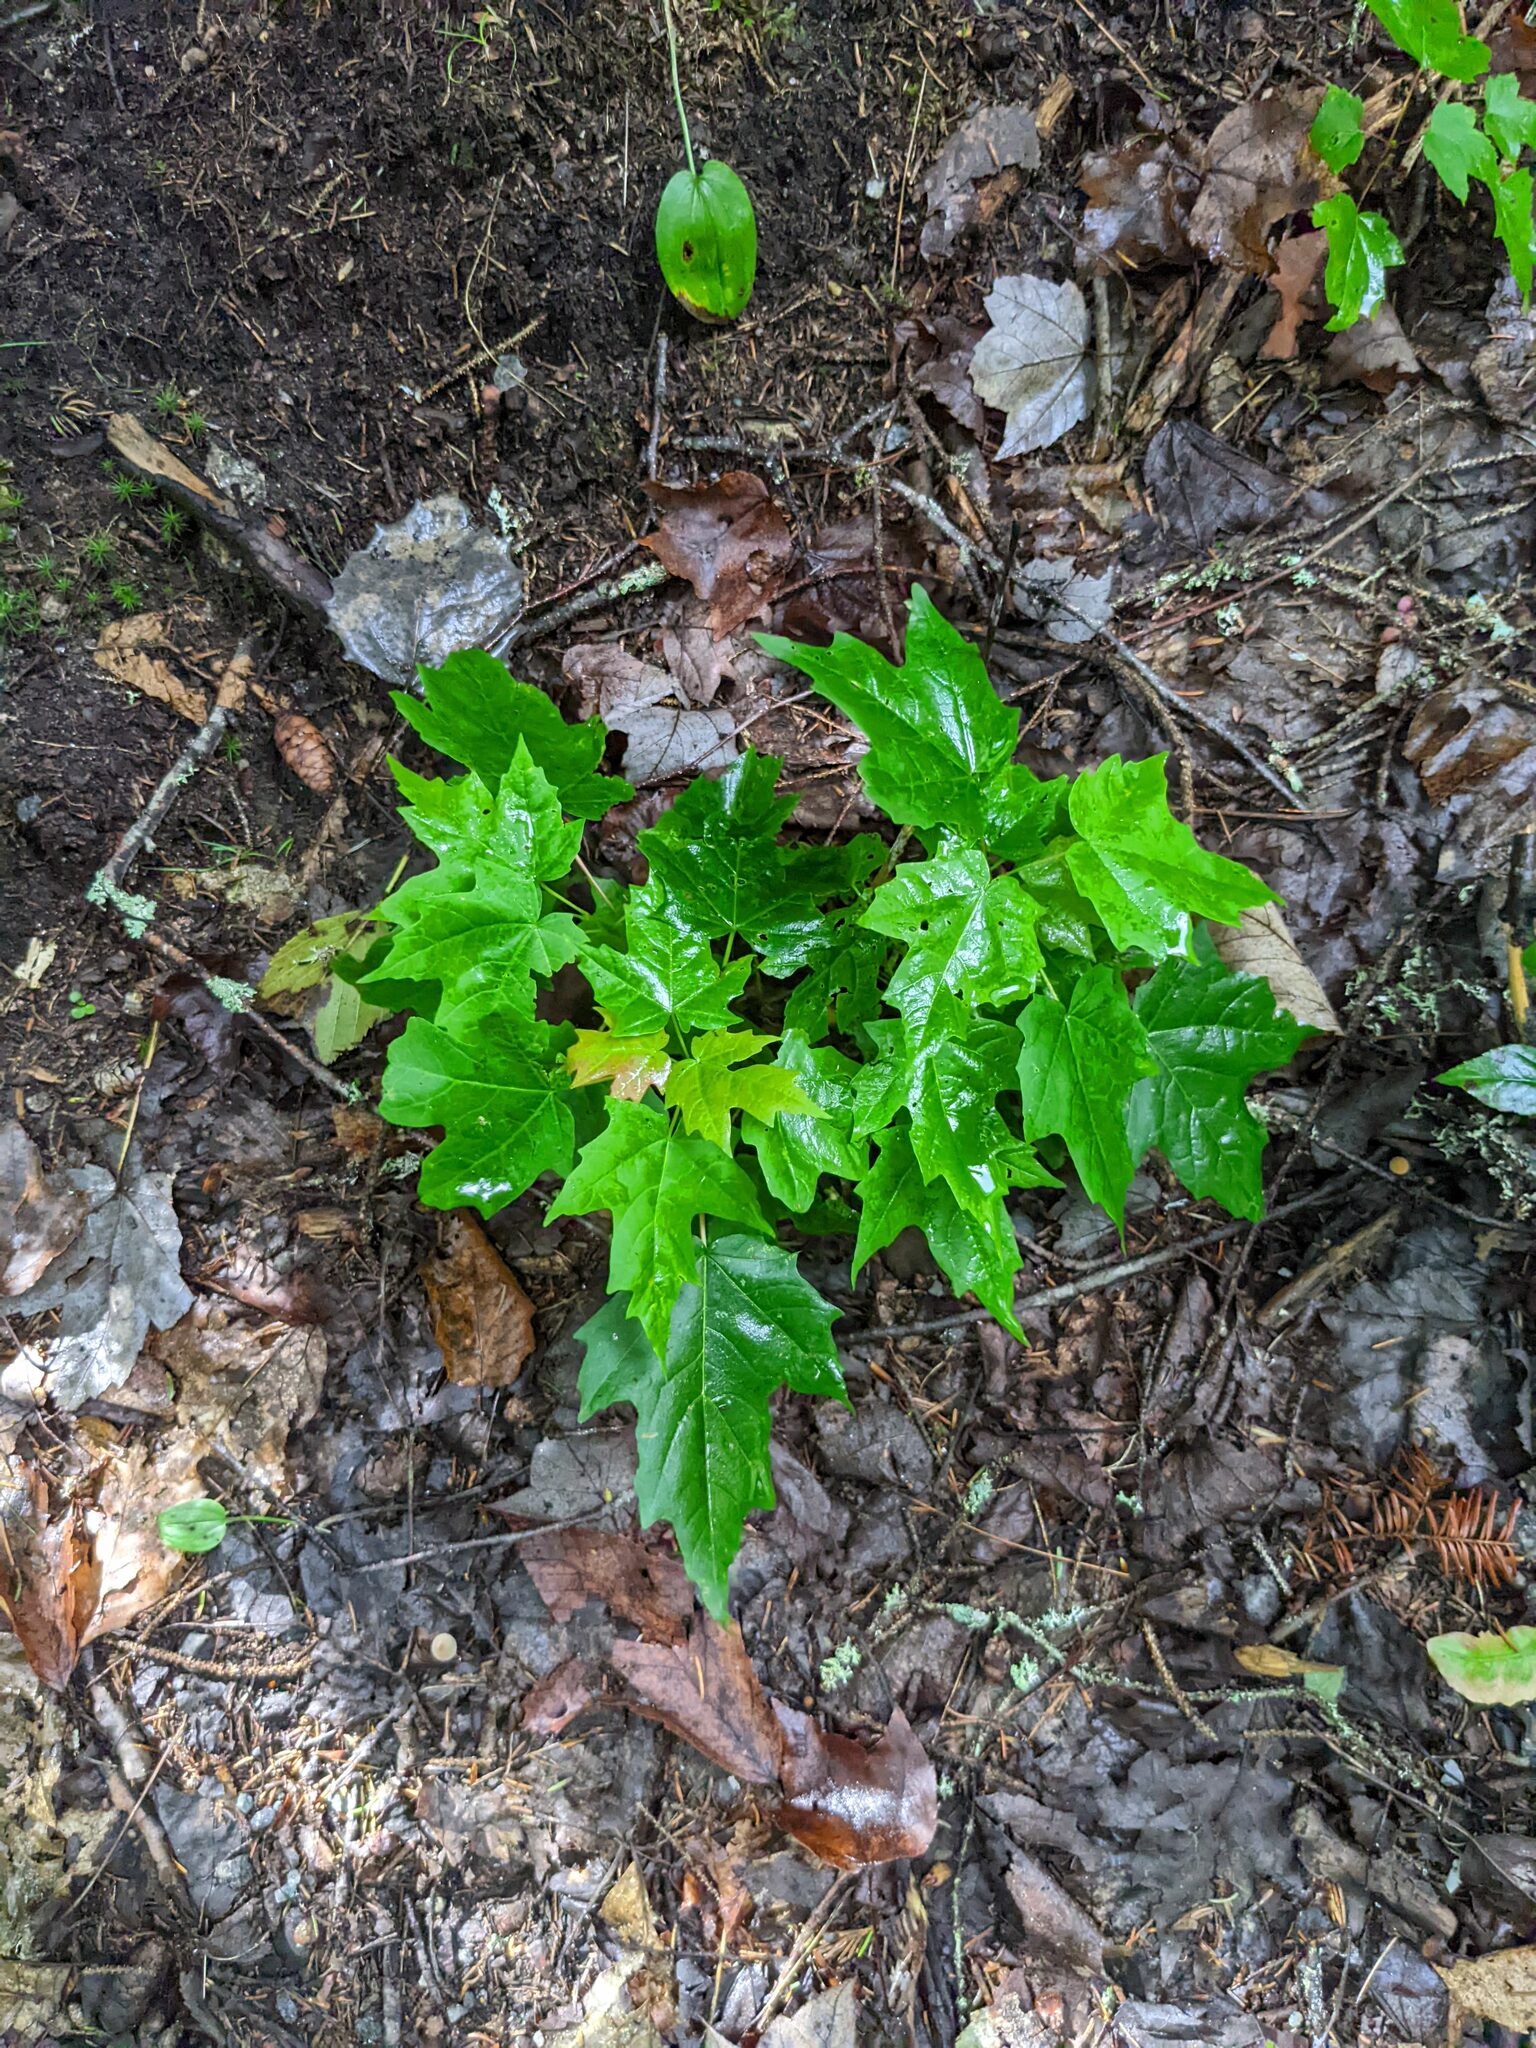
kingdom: Plantae
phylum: Tracheophyta
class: Magnoliopsida
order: Sapindales
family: Sapindaceae
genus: Acer
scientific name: Acer saccharum
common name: Sugar maple
